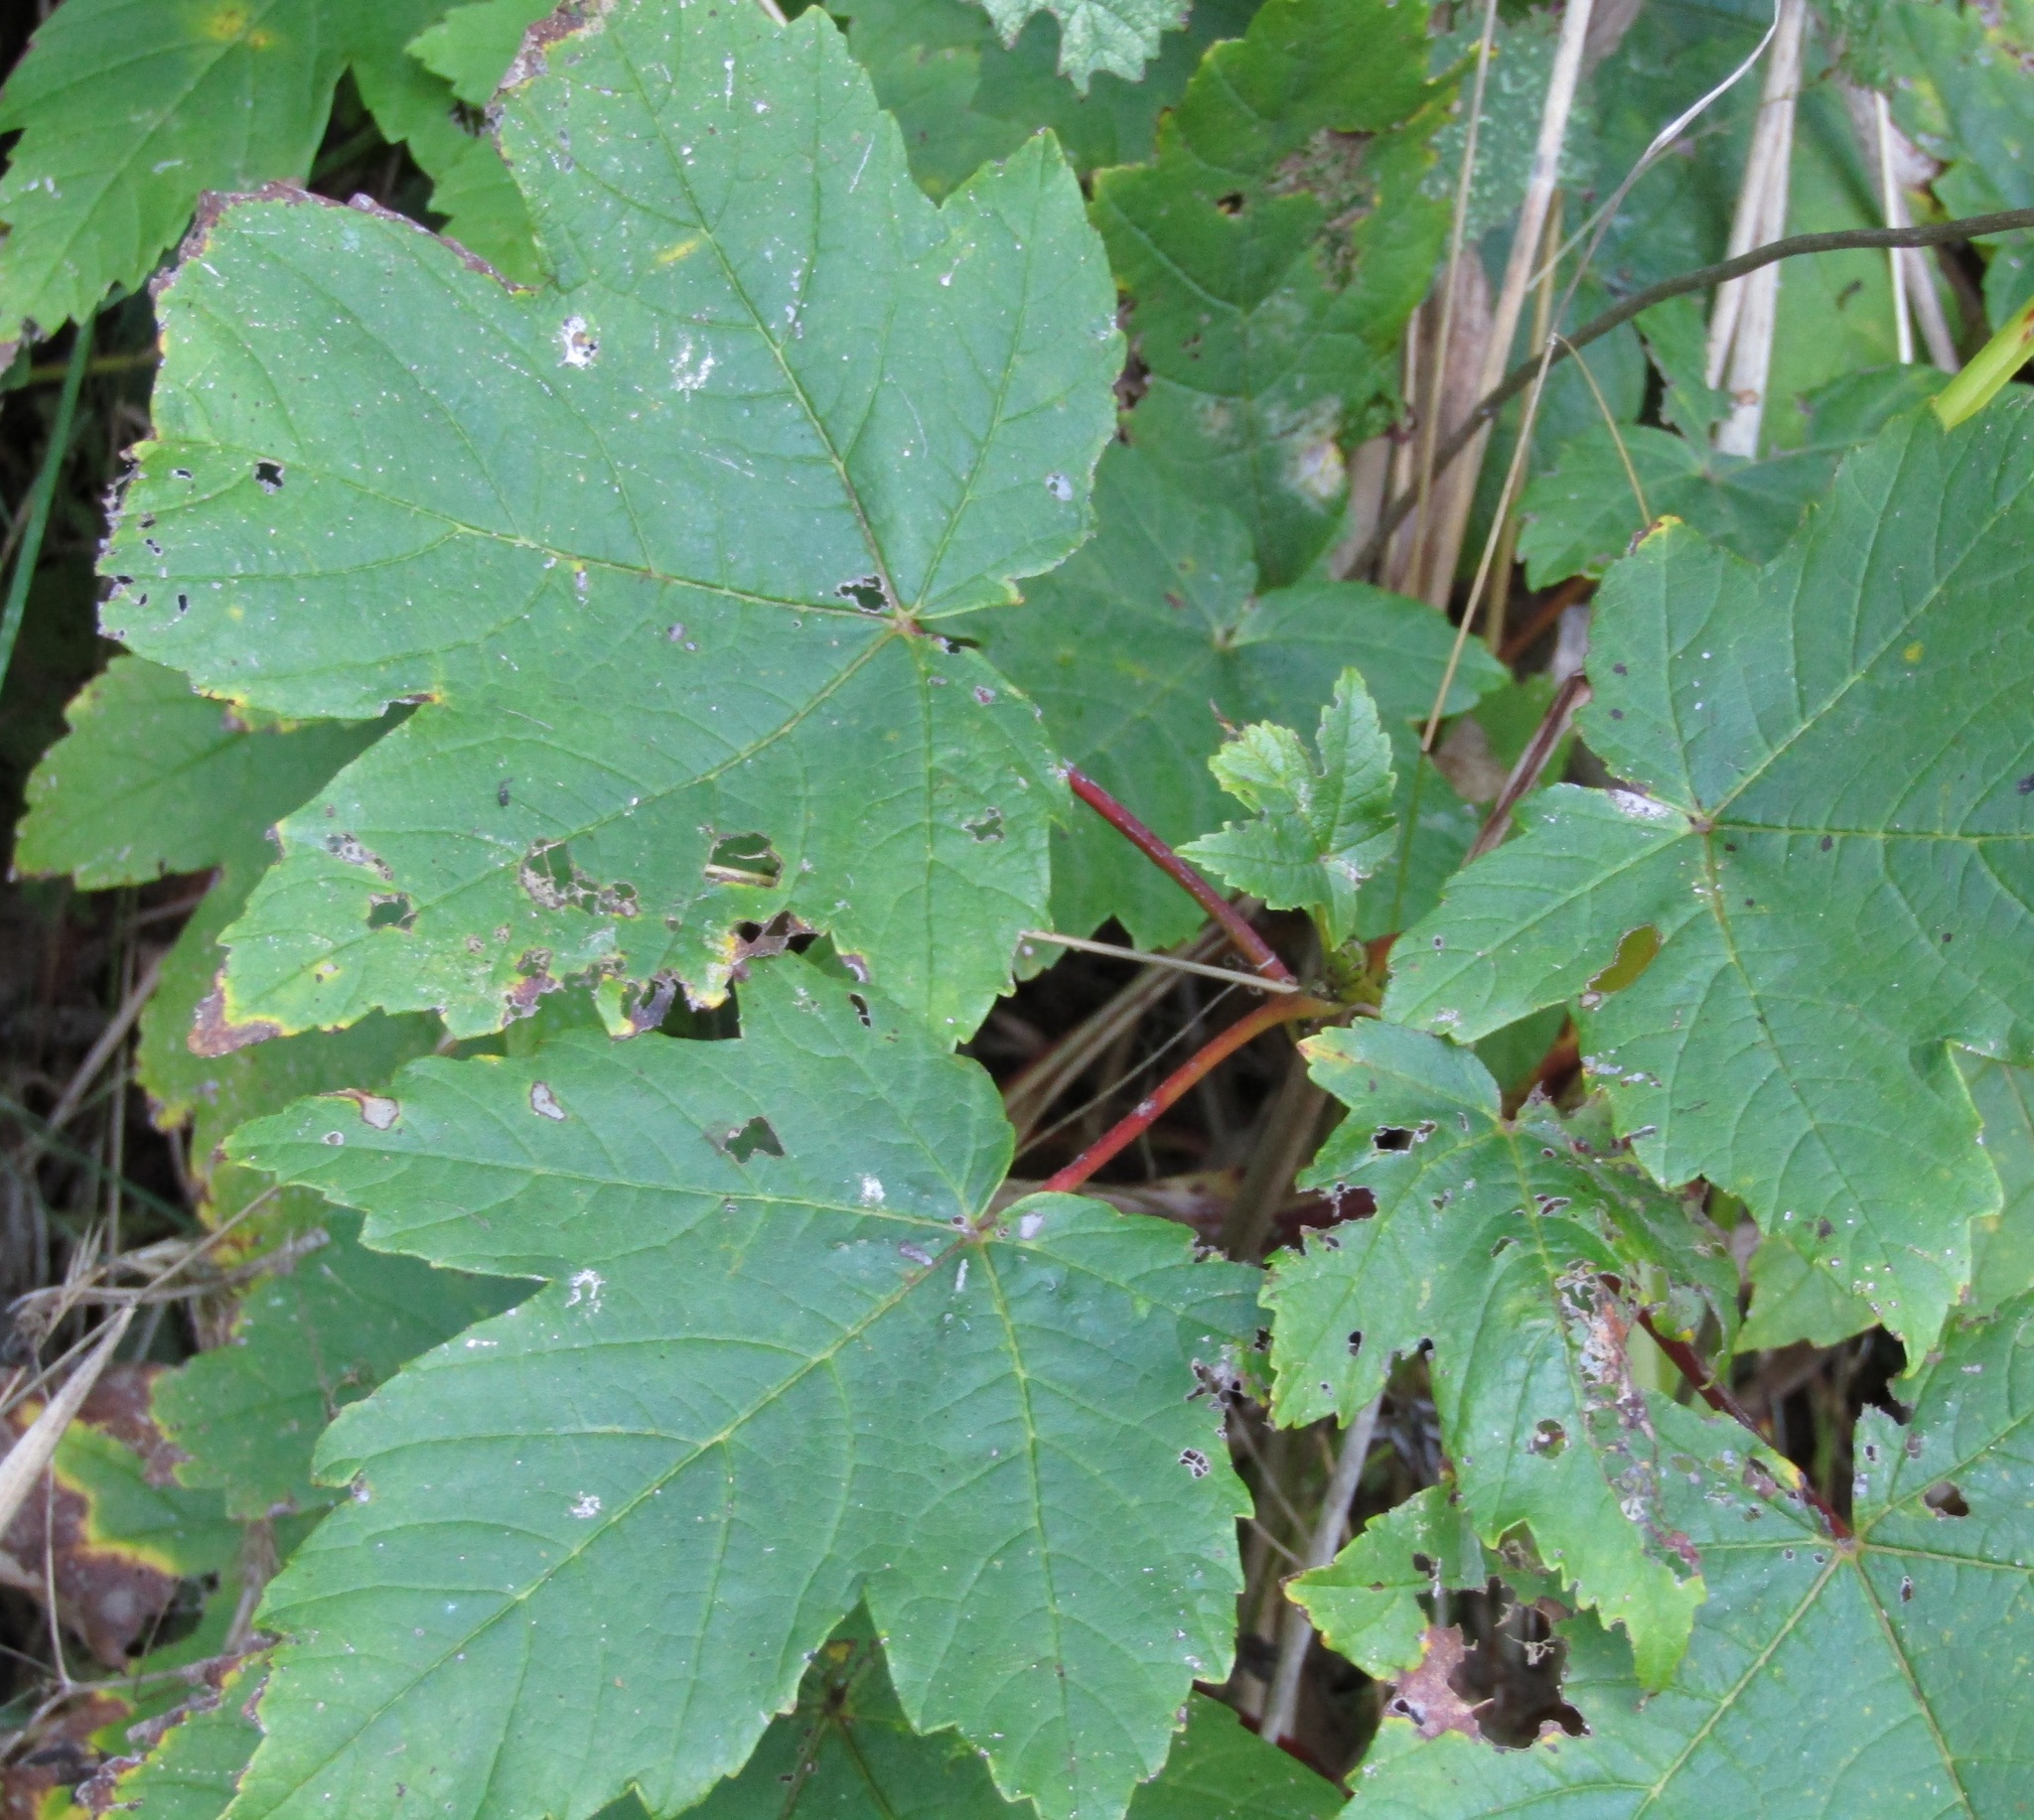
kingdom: Plantae
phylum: Tracheophyta
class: Magnoliopsida
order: Sapindales
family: Sapindaceae
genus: Acer
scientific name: Acer pseudoplatanus
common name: Sycamore
